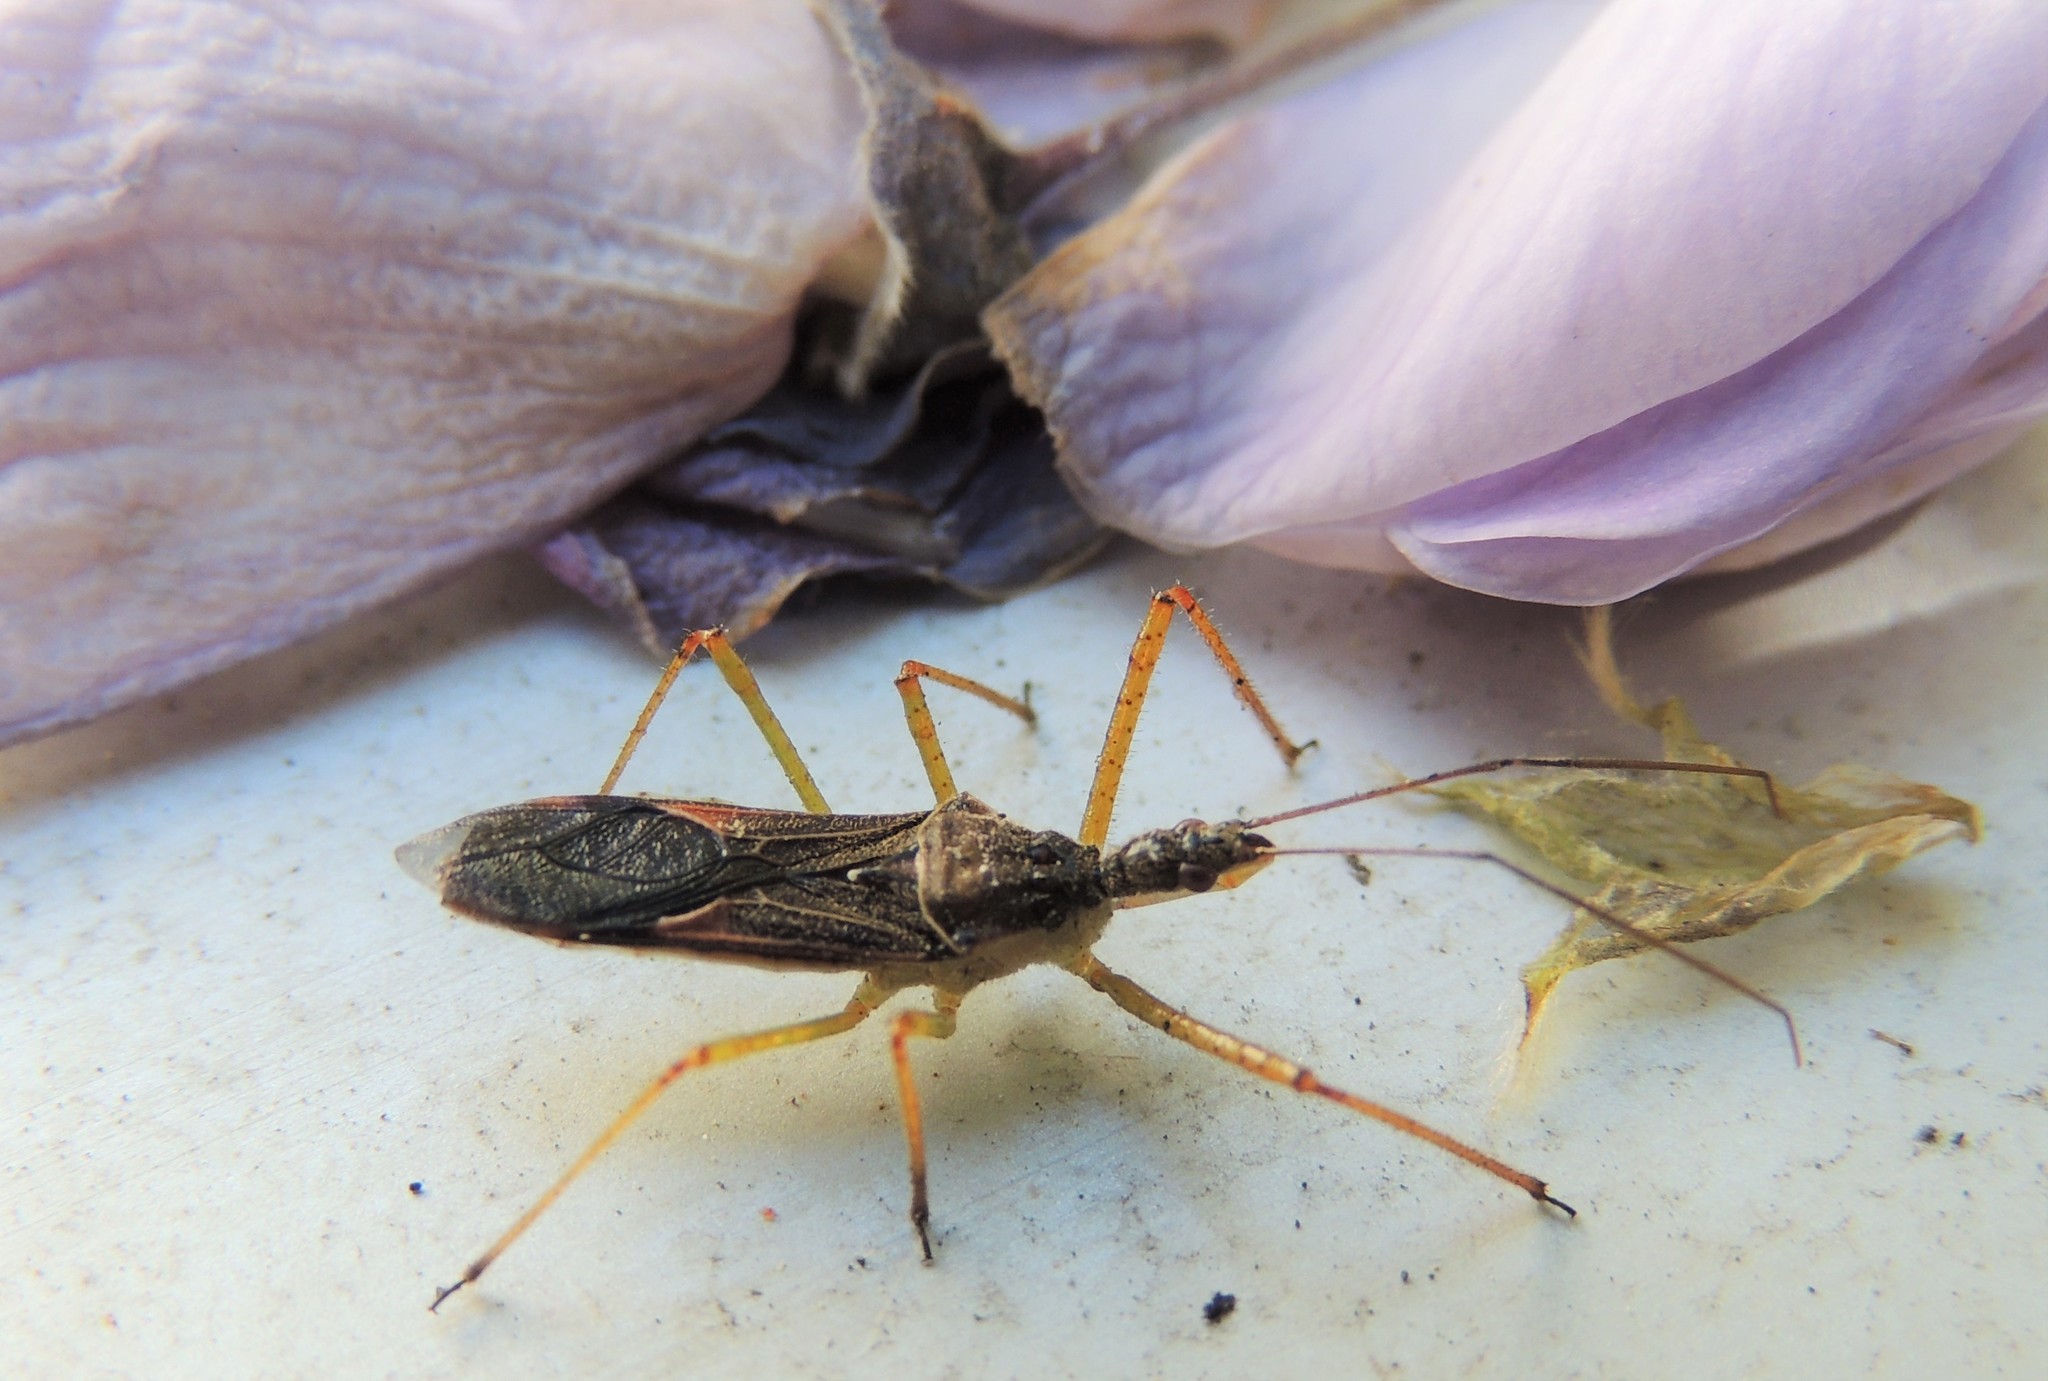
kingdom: Animalia
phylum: Arthropoda
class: Insecta
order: Hemiptera
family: Reduviidae
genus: Zelus
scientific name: Zelus renardii
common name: Assassin bug
